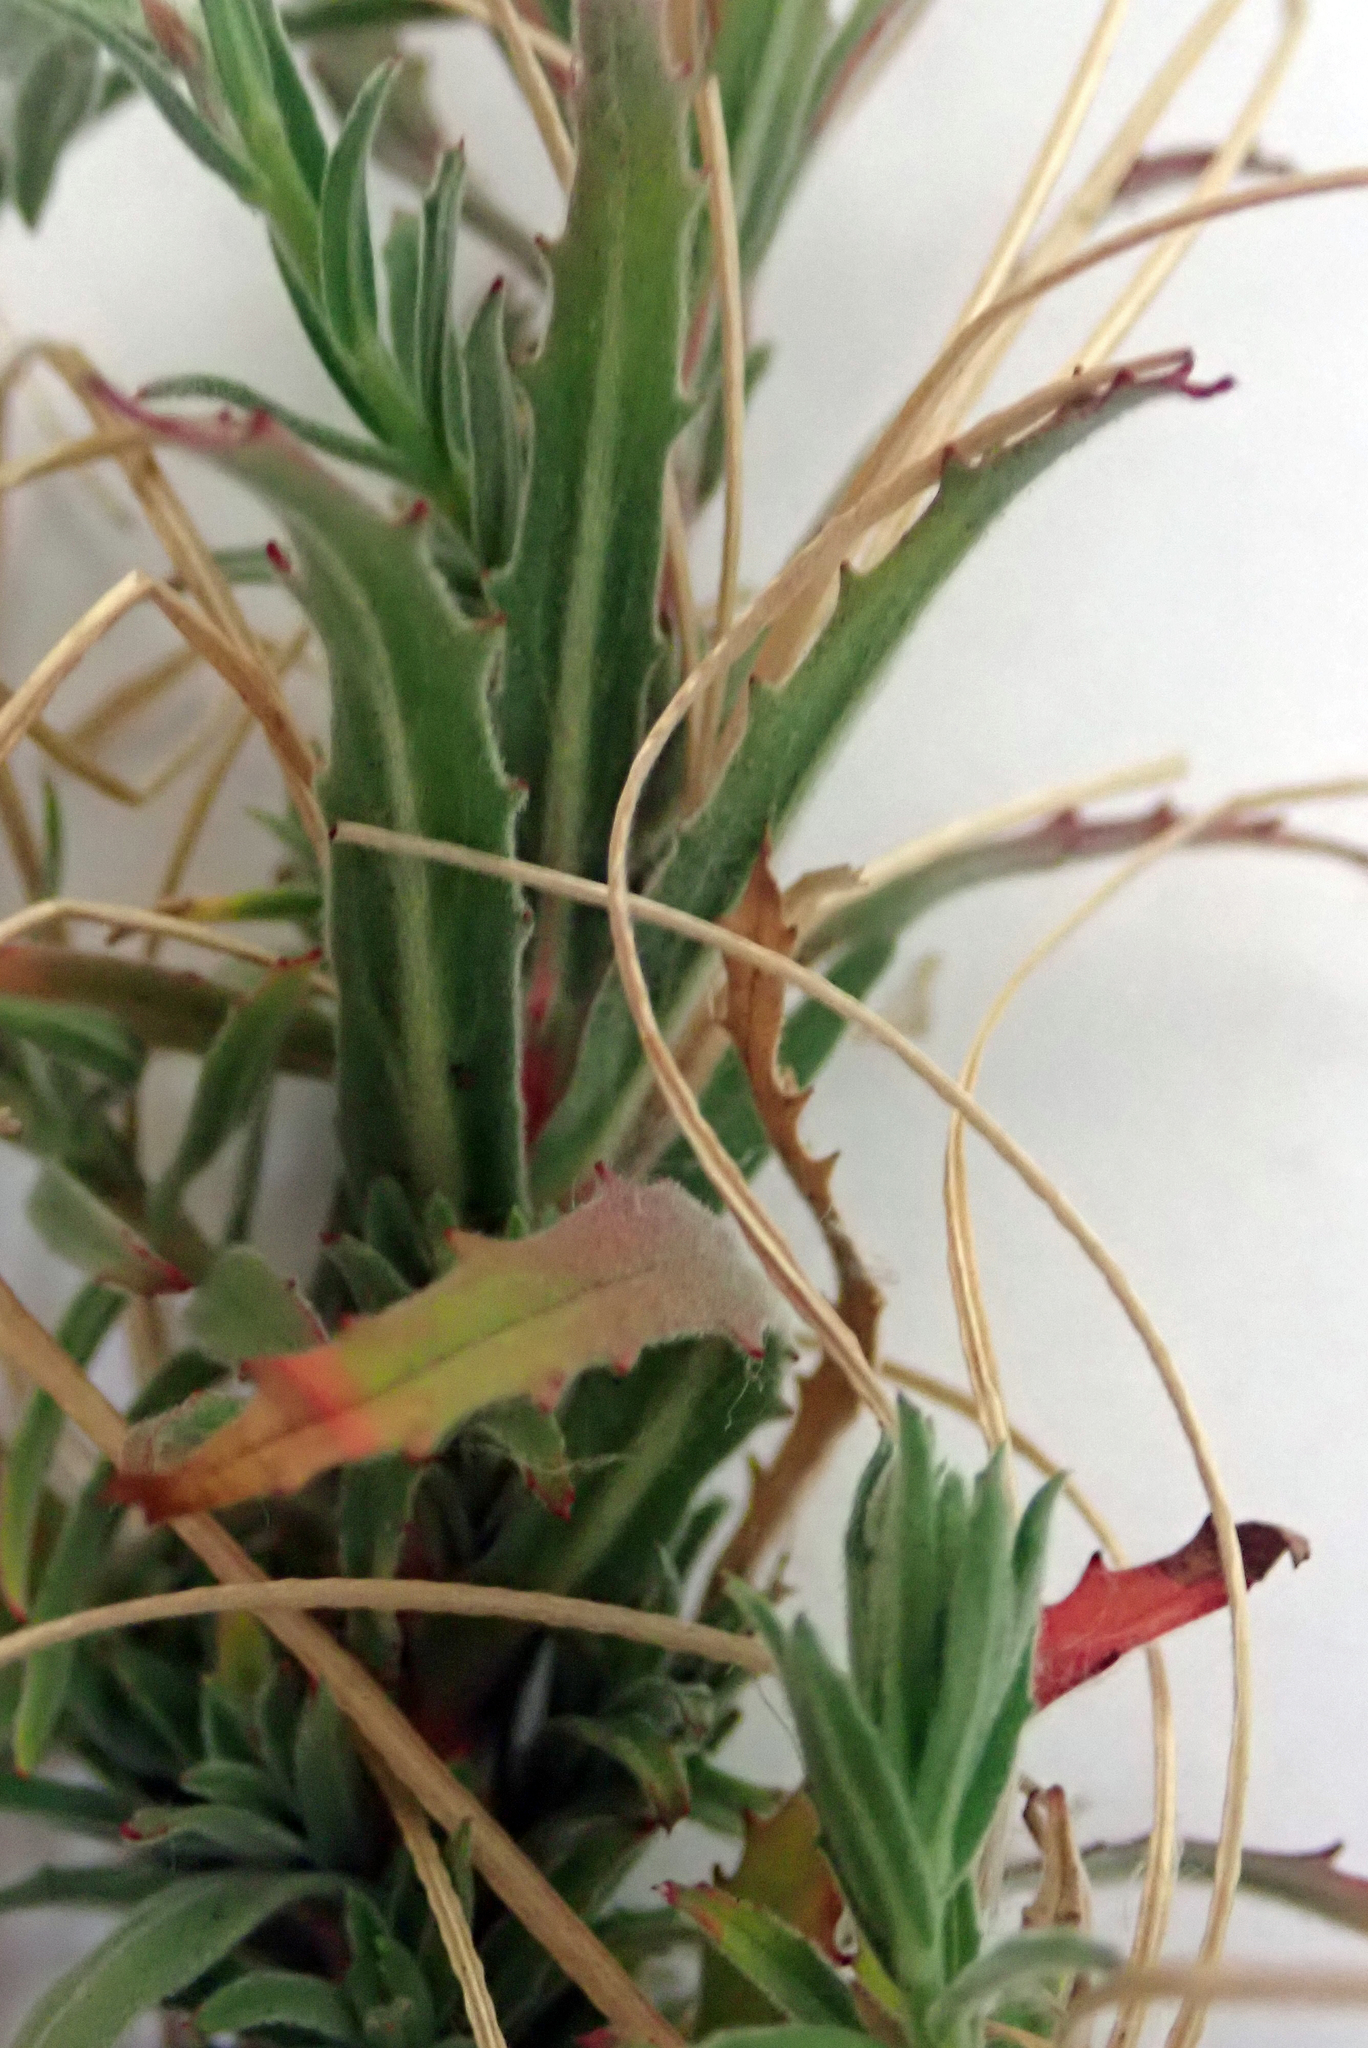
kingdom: Plantae
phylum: Tracheophyta
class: Magnoliopsida
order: Myrtales
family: Onagraceae
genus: Epilobium
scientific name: Epilobium hirtigerum
